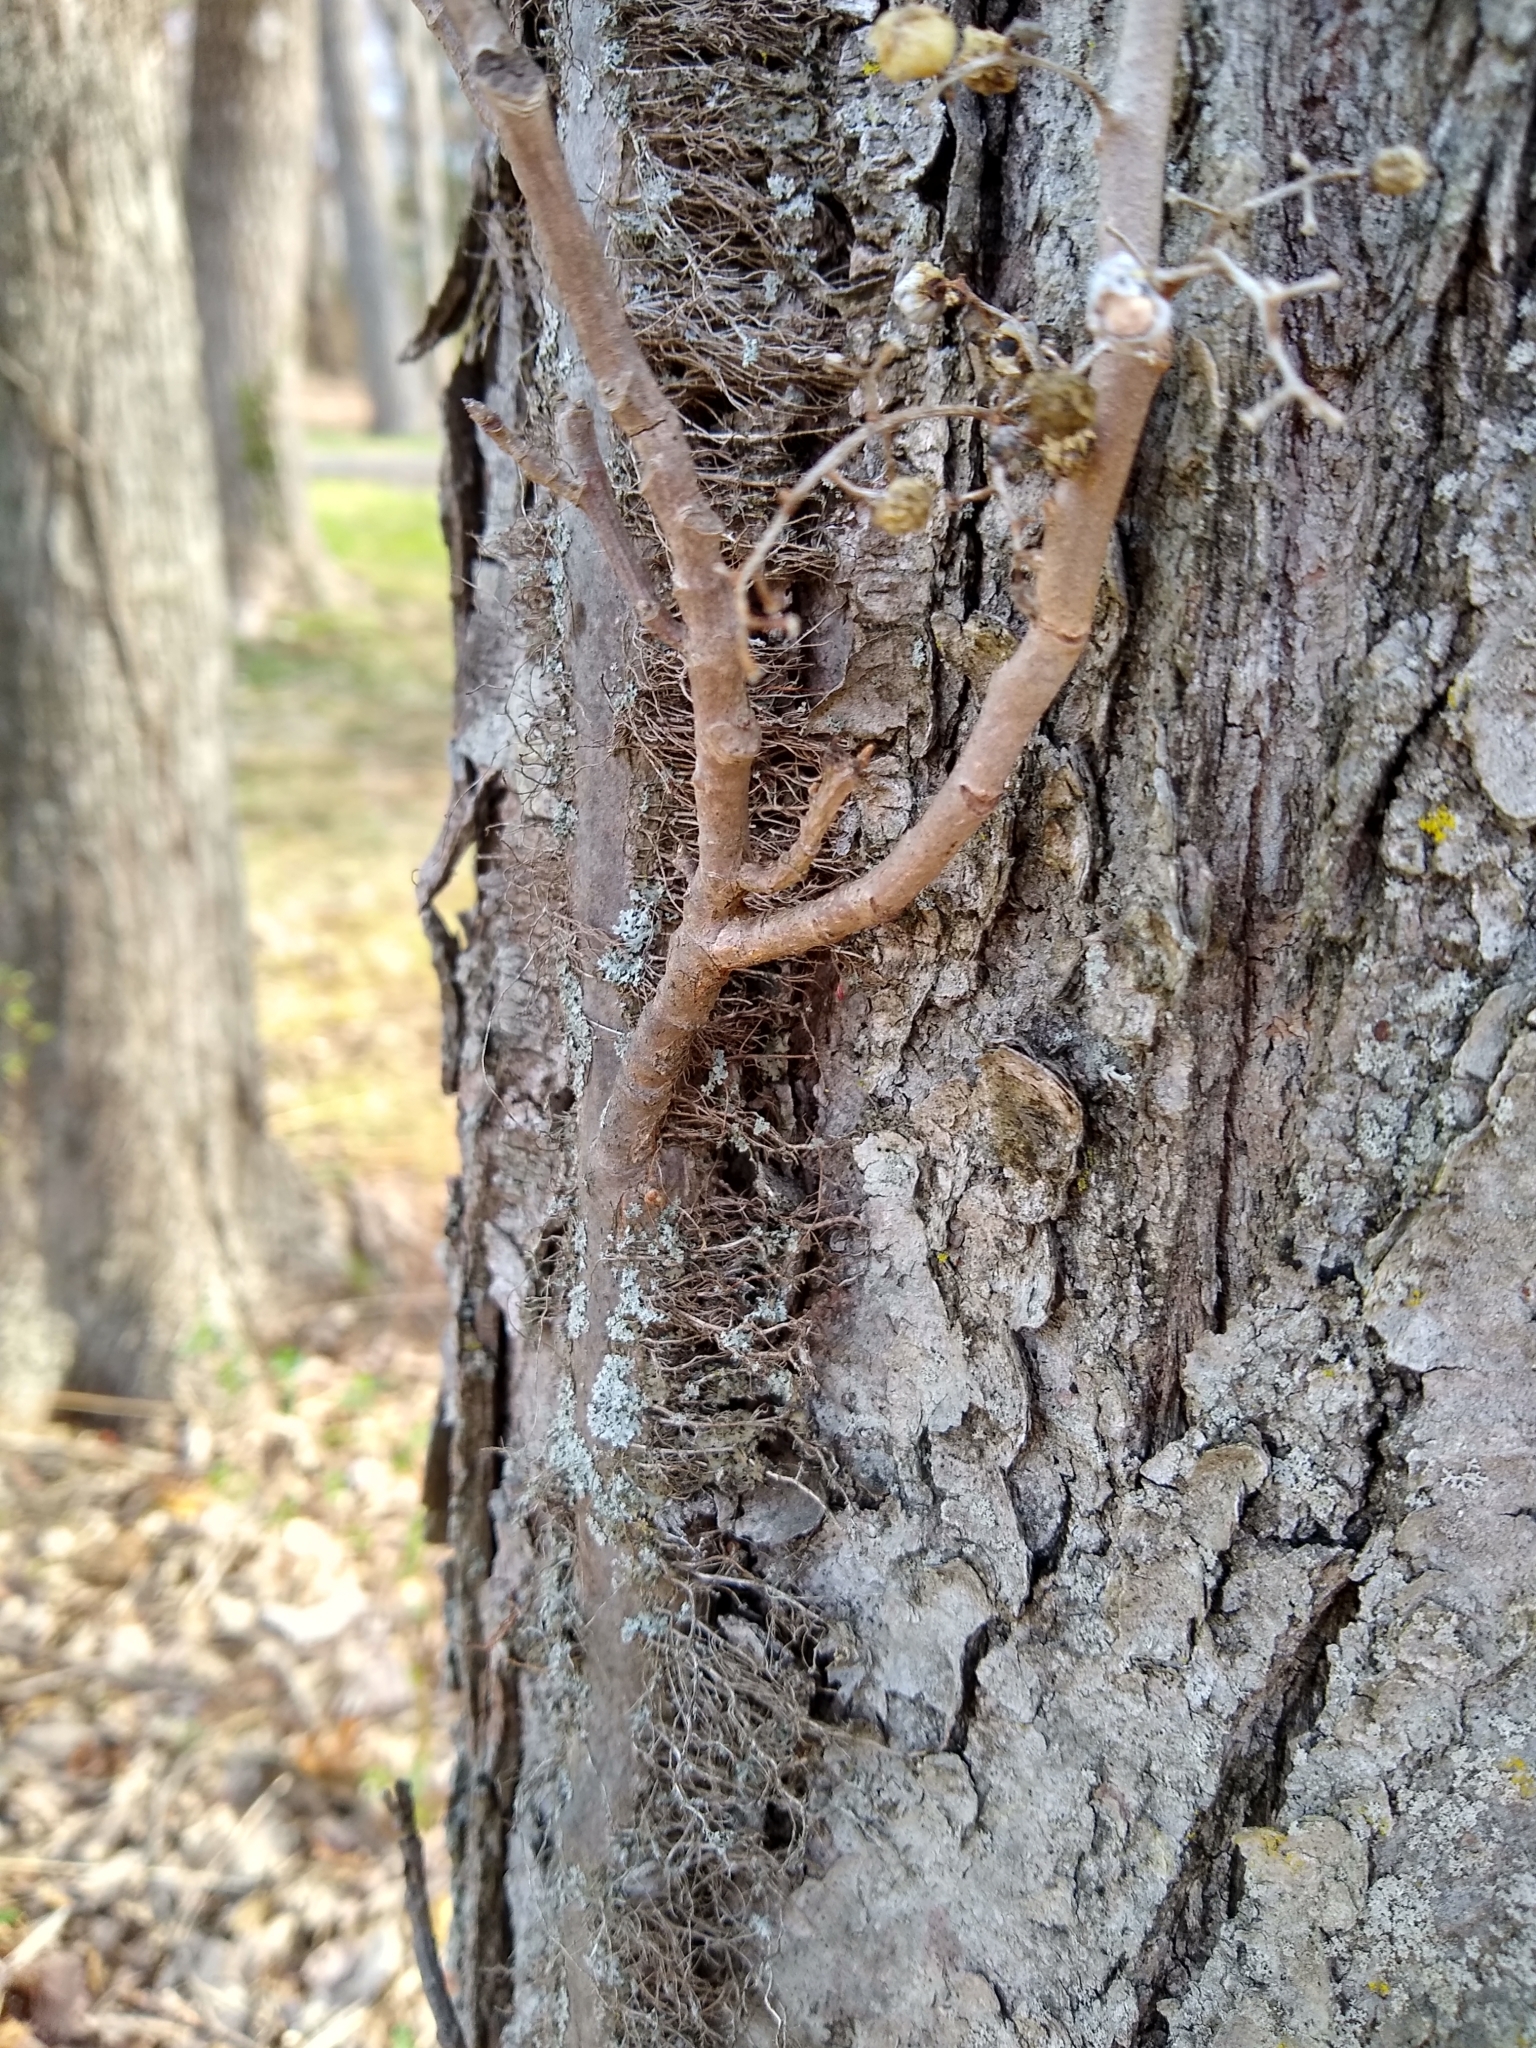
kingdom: Plantae
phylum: Tracheophyta
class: Magnoliopsida
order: Sapindales
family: Anacardiaceae
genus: Toxicodendron
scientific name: Toxicodendron radicans
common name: Poison ivy
